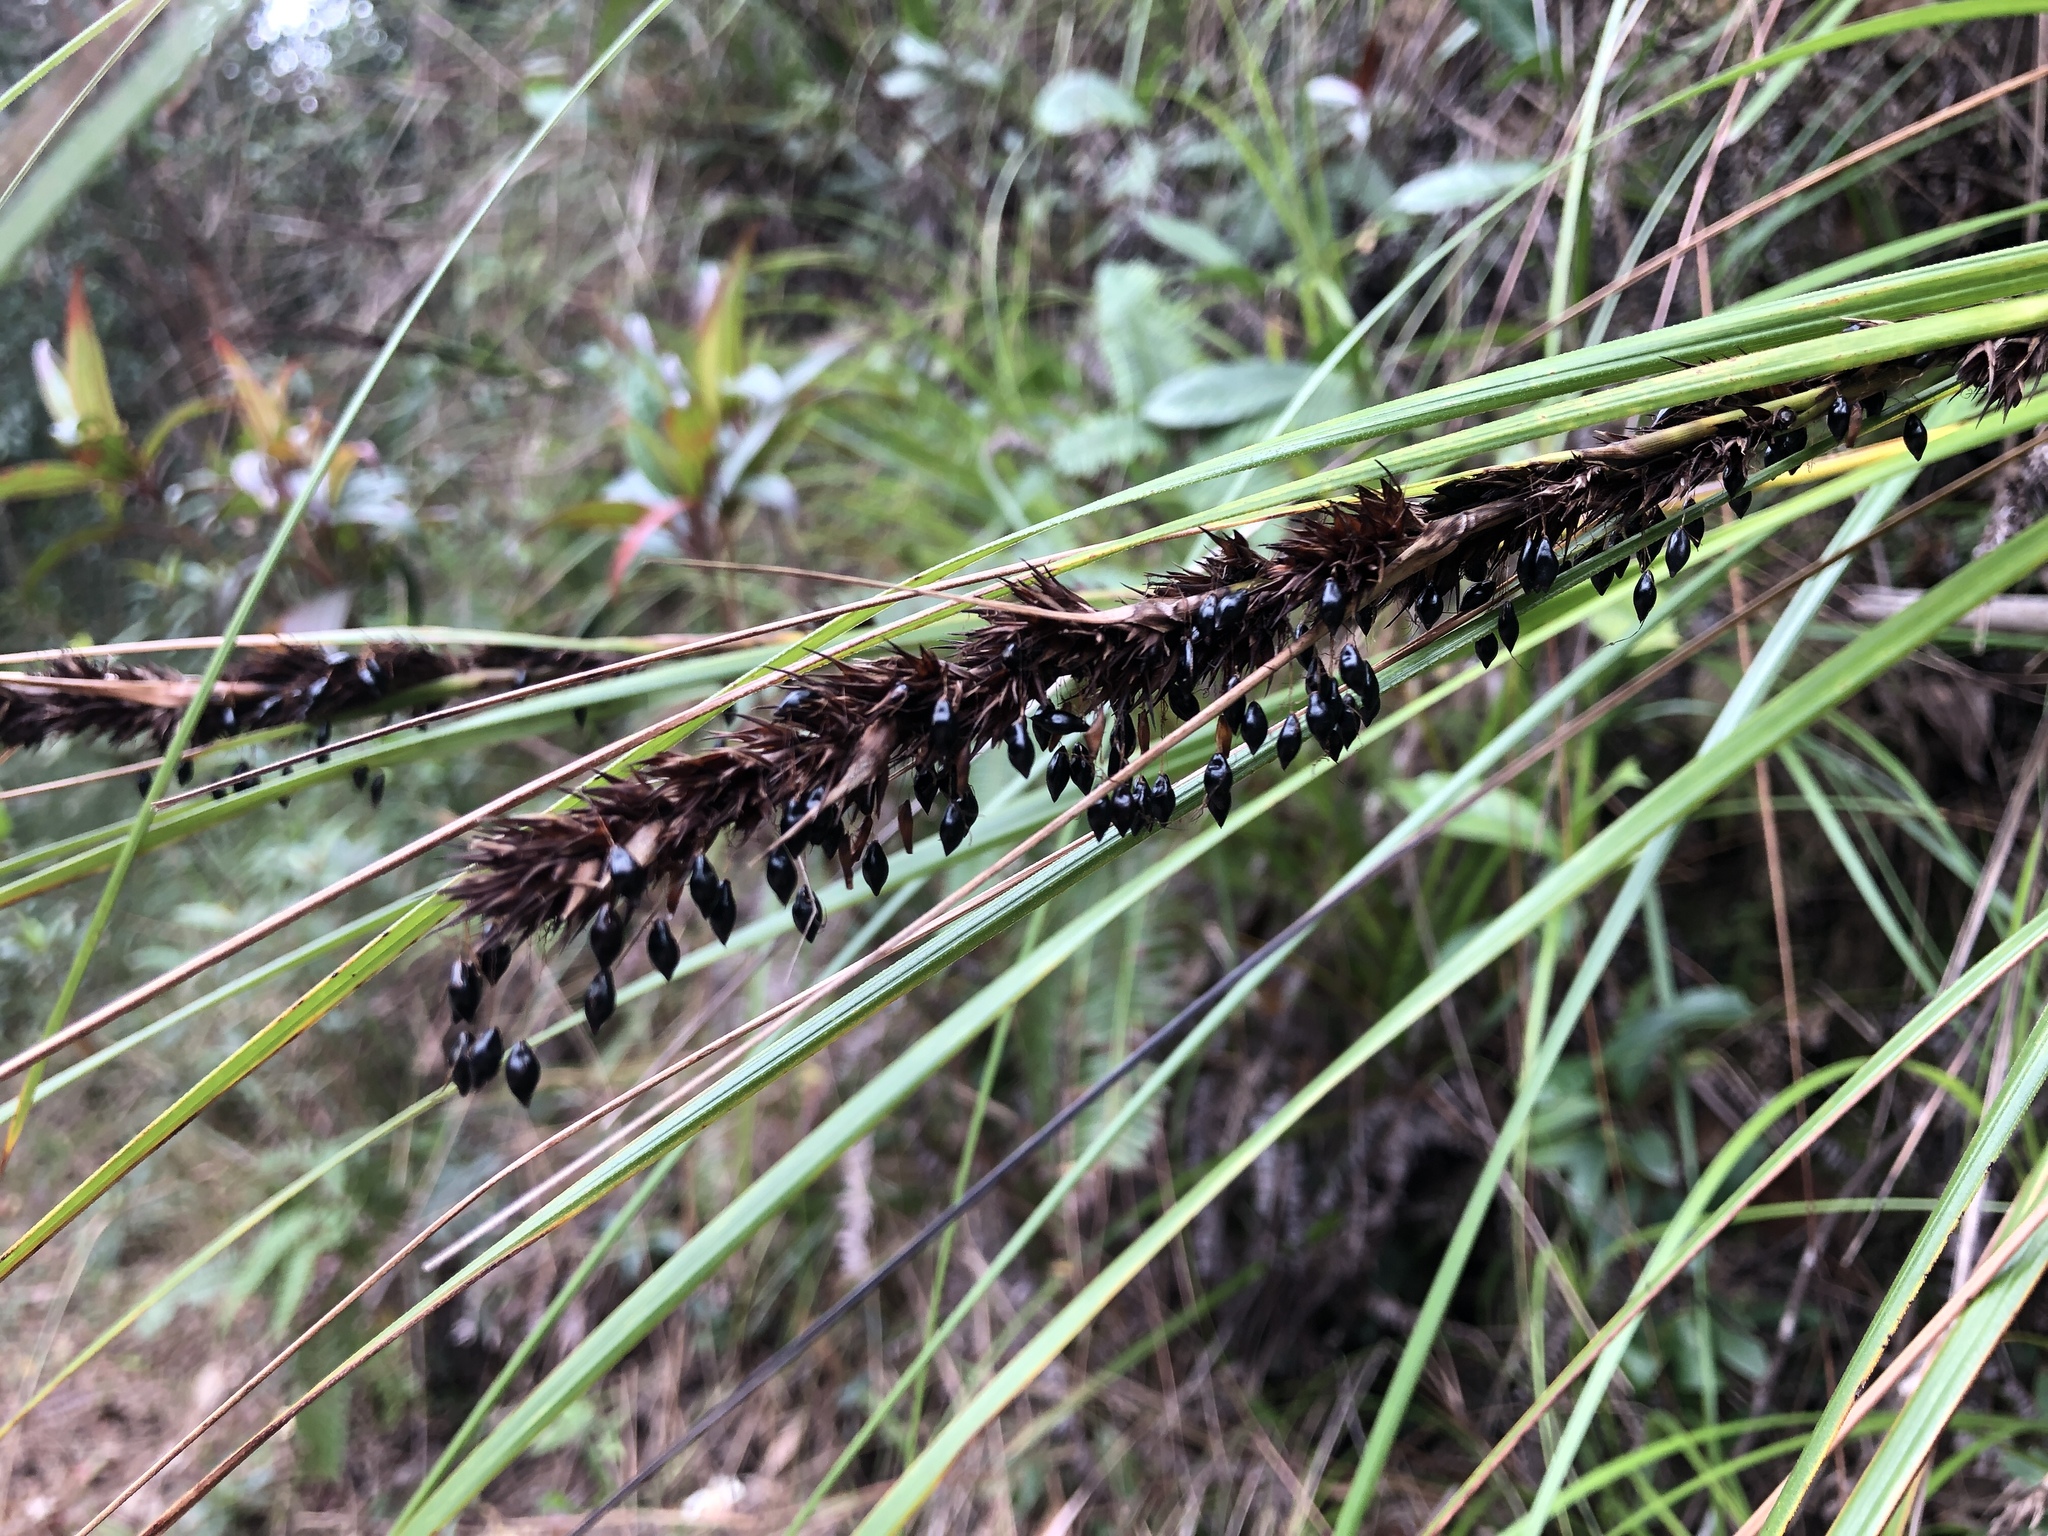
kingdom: Plantae
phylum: Tracheophyta
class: Liliopsida
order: Poales
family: Cyperaceae
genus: Gahnia
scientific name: Gahnia tristis
